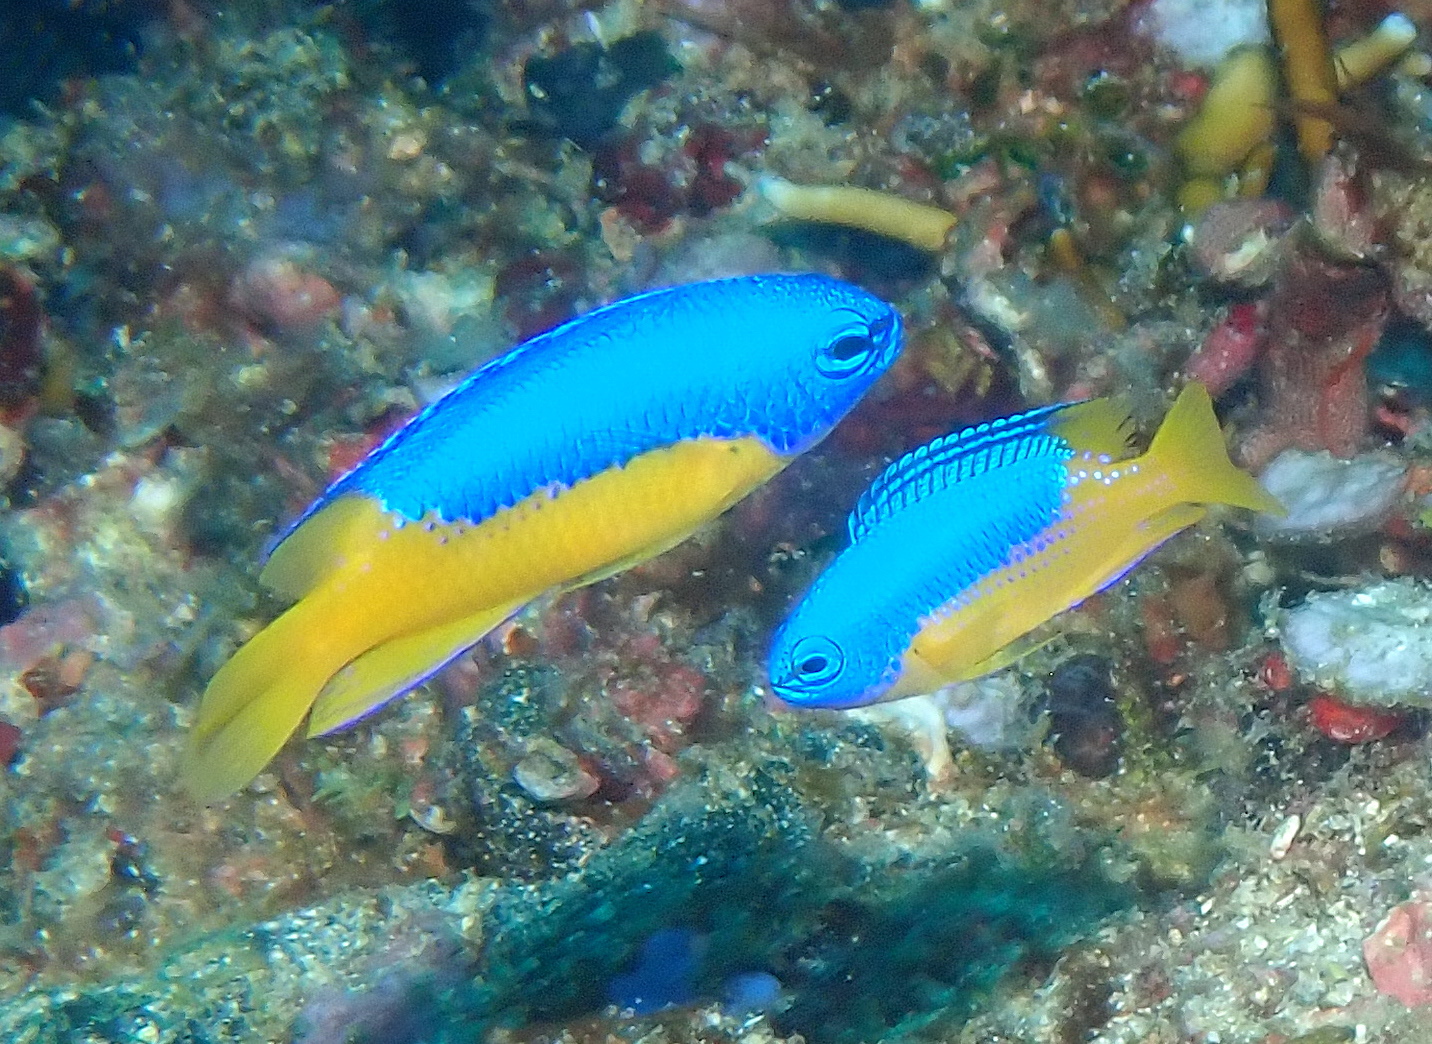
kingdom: Animalia
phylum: Chordata
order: Perciformes
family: Pomacentridae
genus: Pomacentrus
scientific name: Pomacentrus auriventris
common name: Goldbelly damsel
